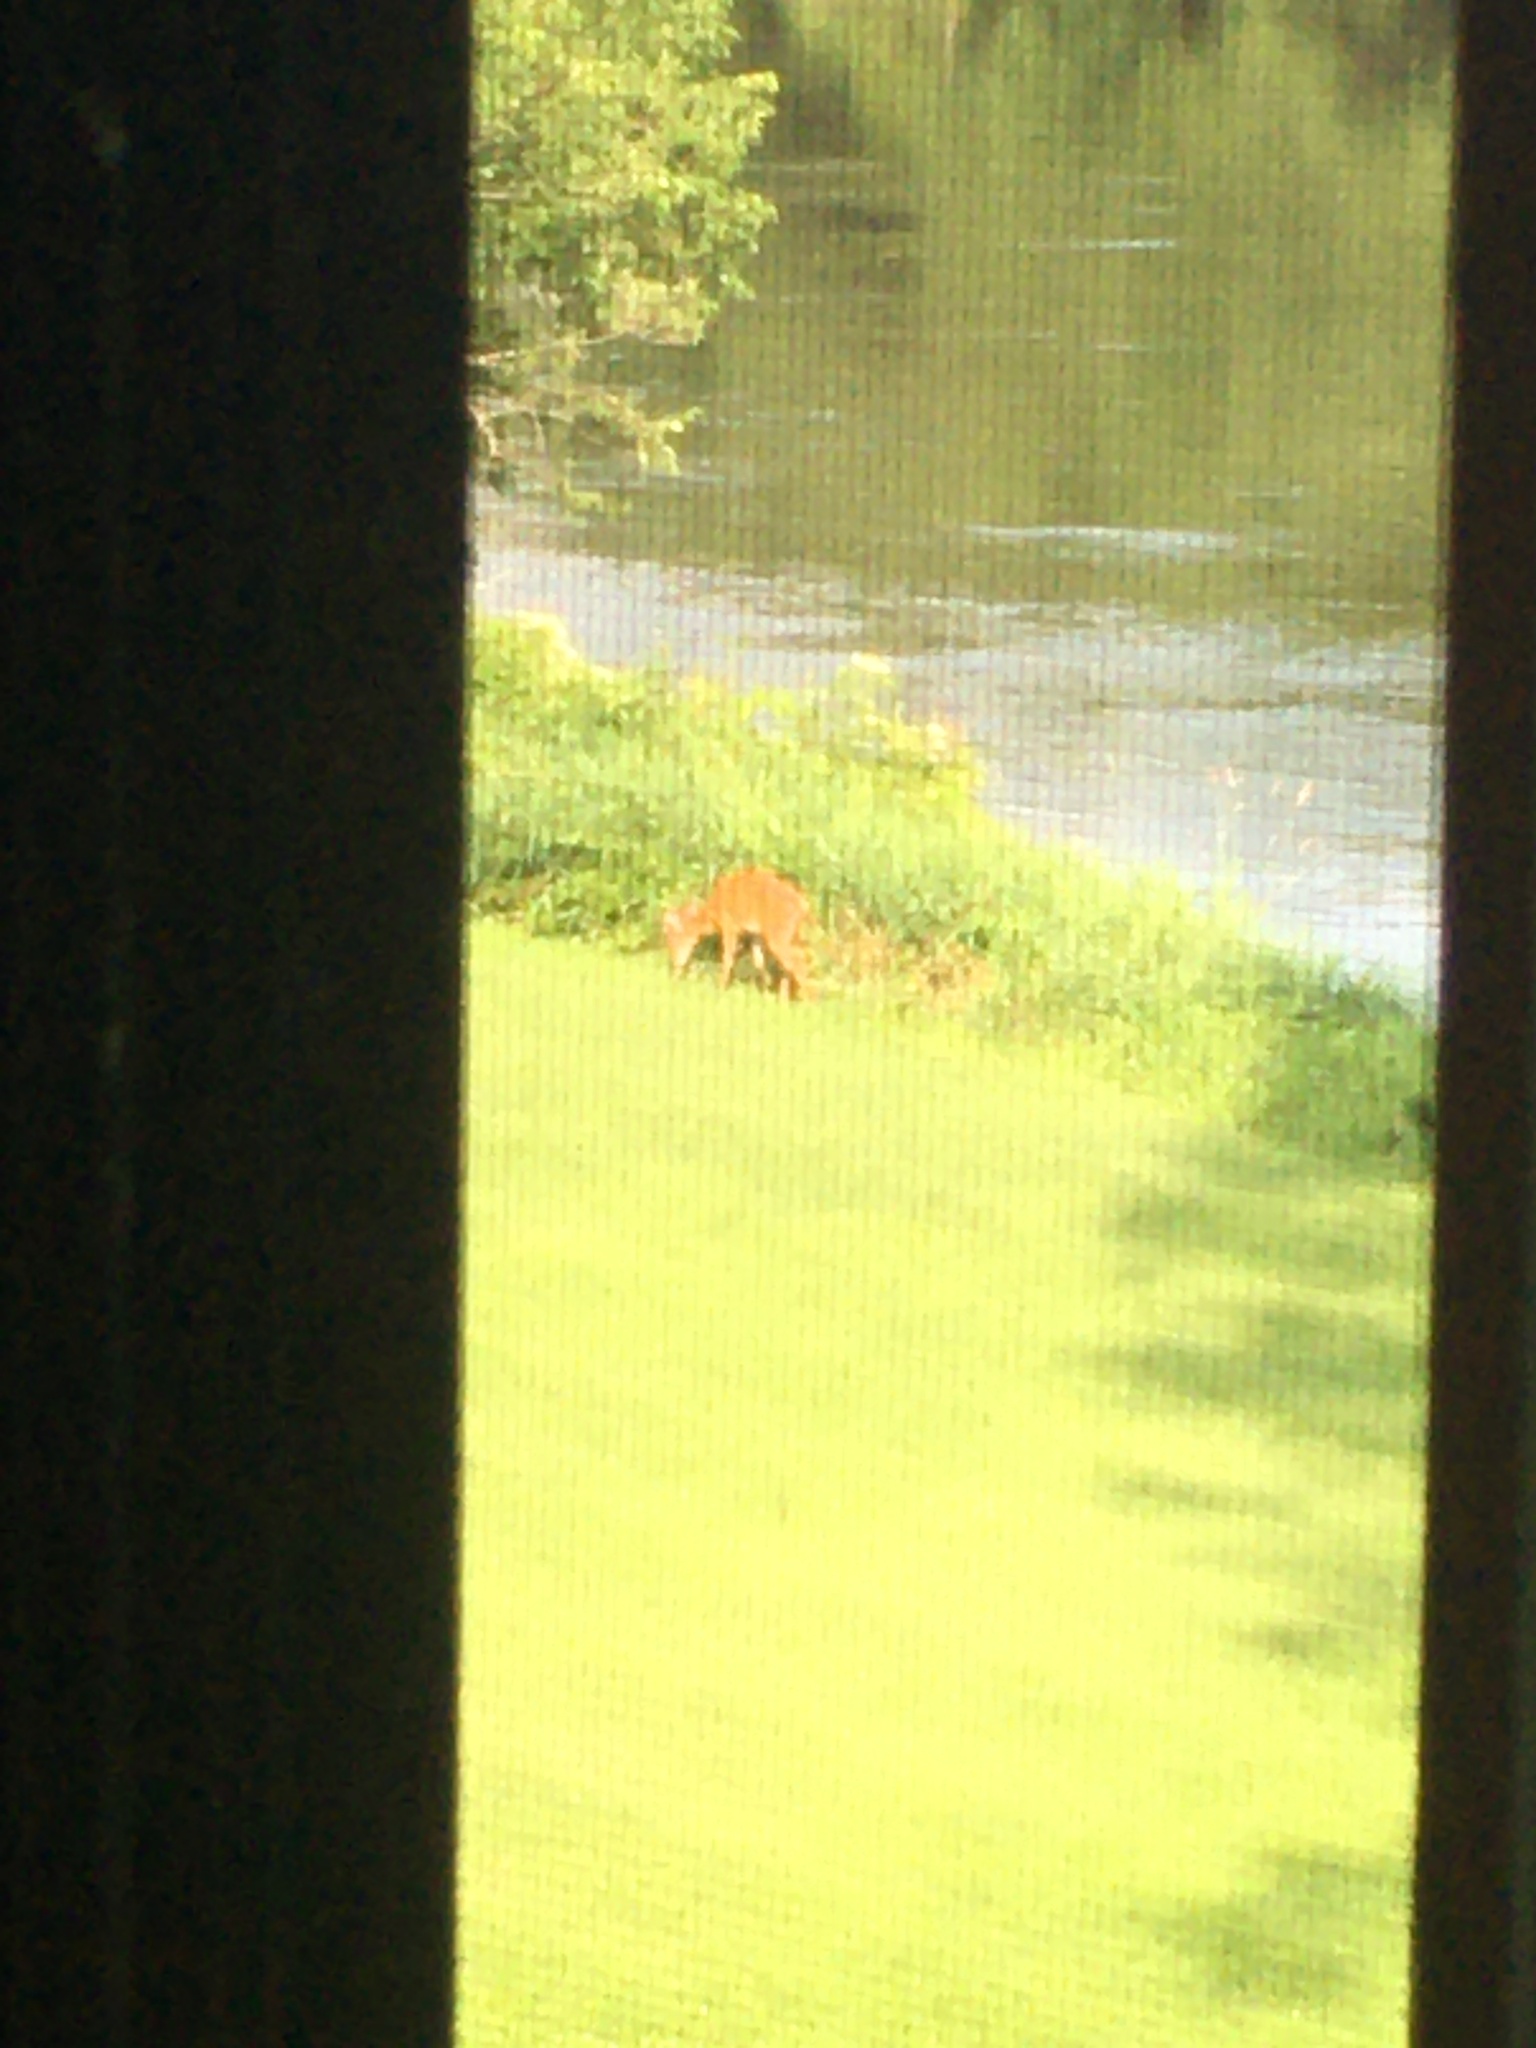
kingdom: Animalia
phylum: Chordata
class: Mammalia
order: Artiodactyla
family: Cervidae
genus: Odocoileus
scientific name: Odocoileus virginianus
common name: White-tailed deer
